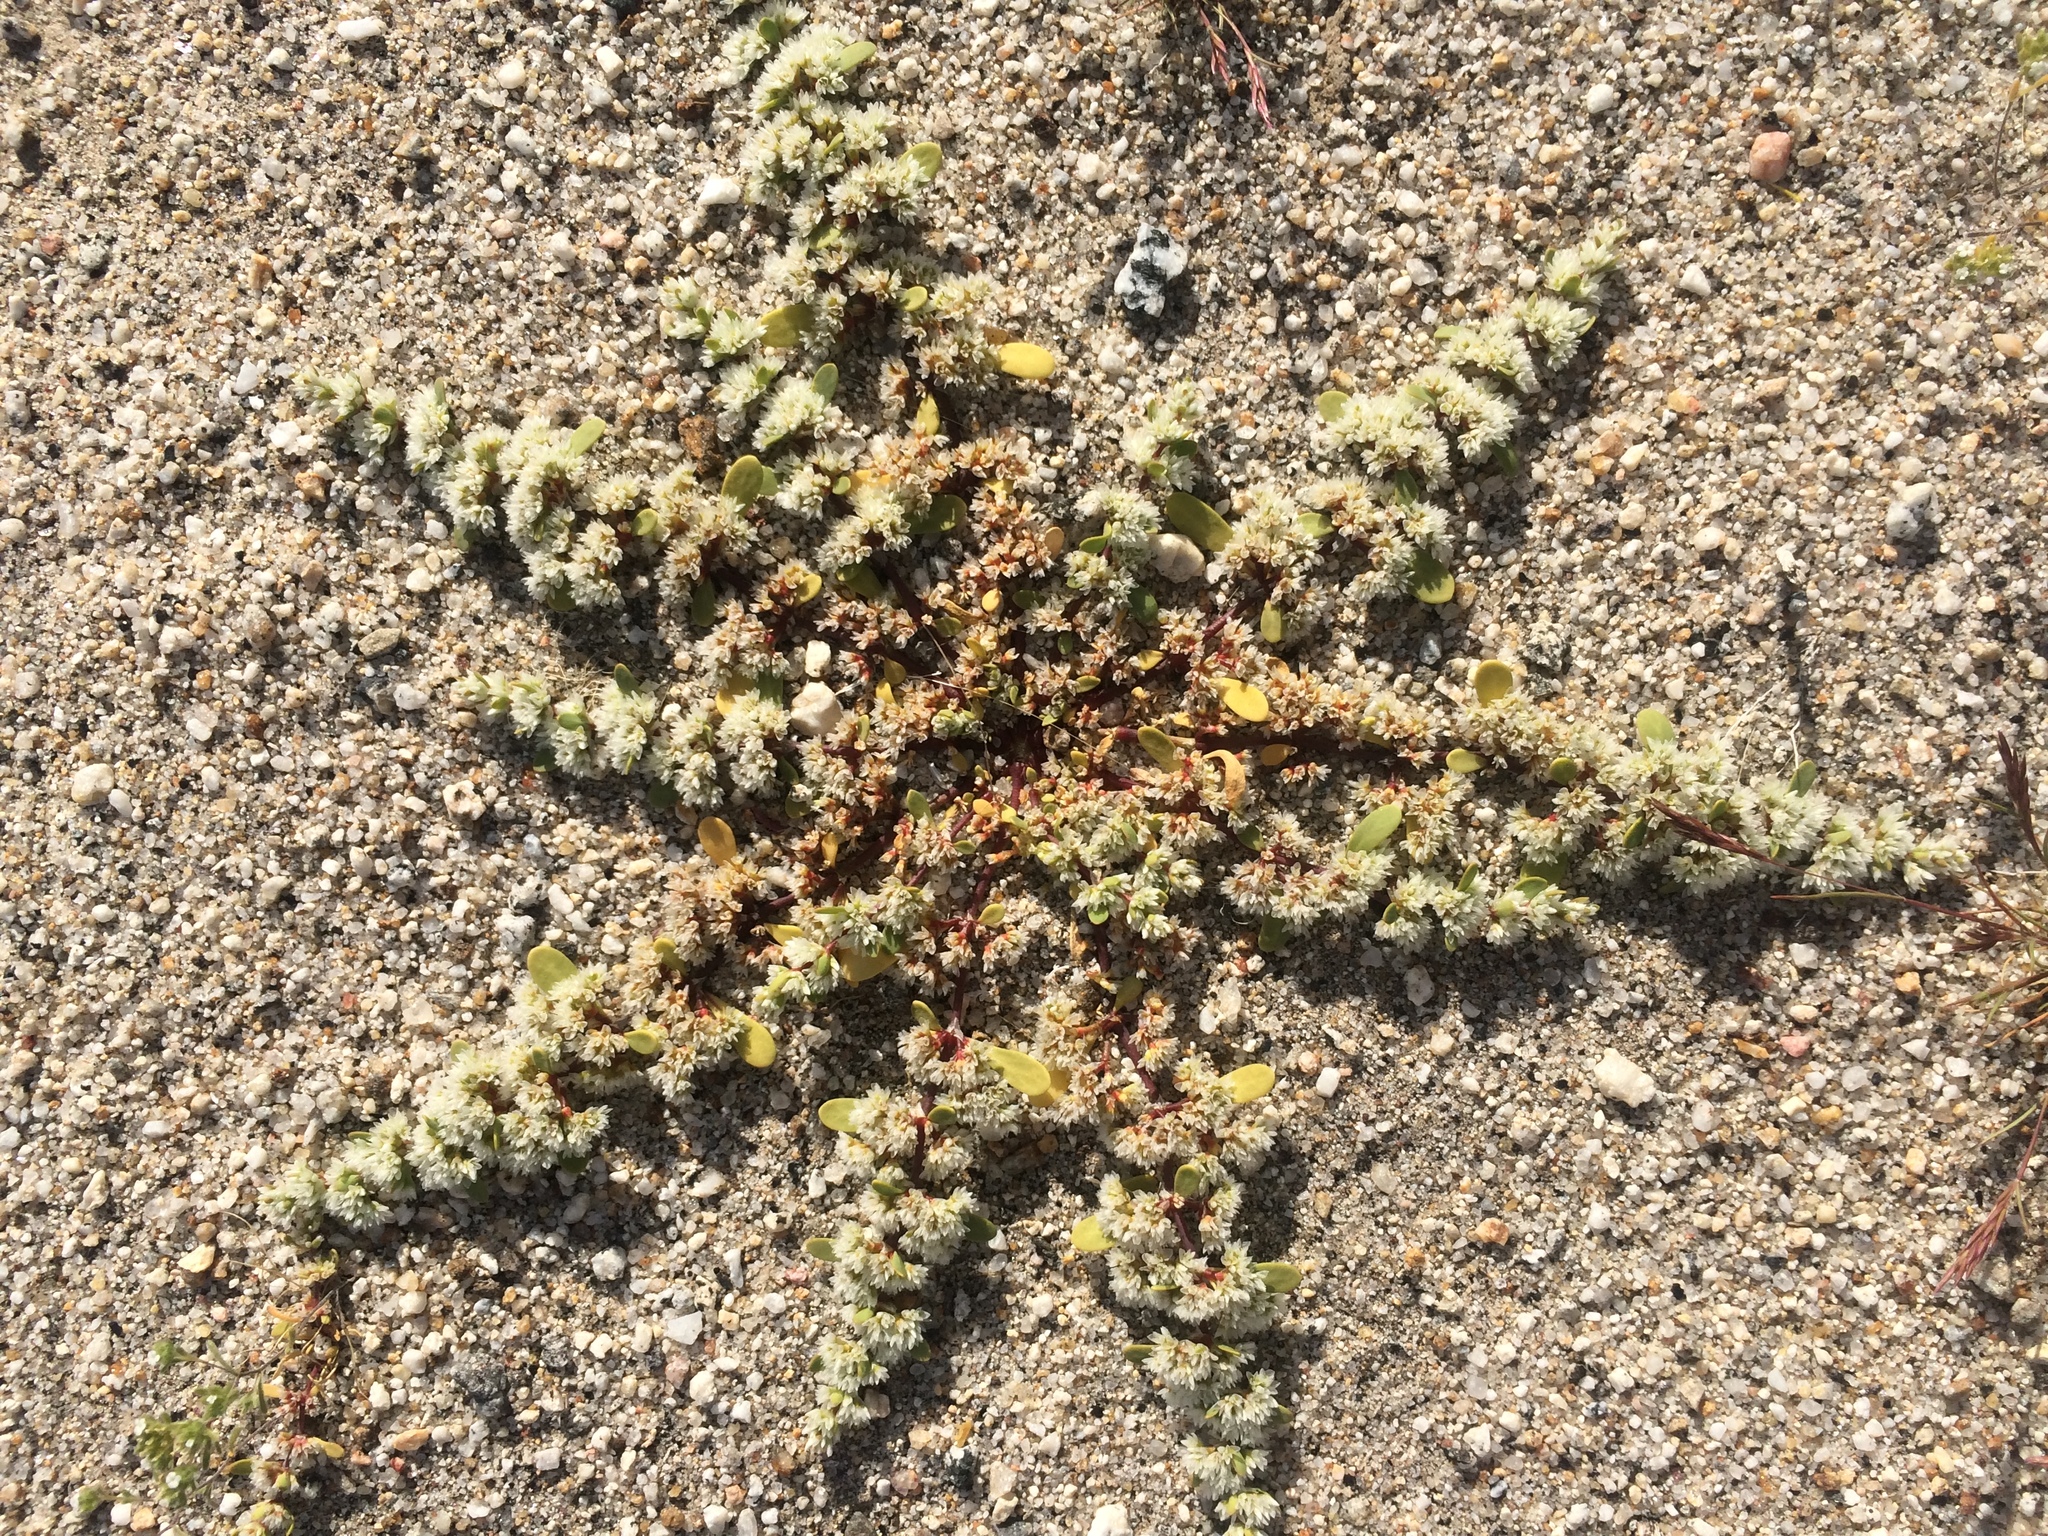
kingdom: Plantae
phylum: Tracheophyta
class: Magnoliopsida
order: Caryophyllales
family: Caryophyllaceae
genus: Achyronychia
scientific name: Achyronychia cooperi
